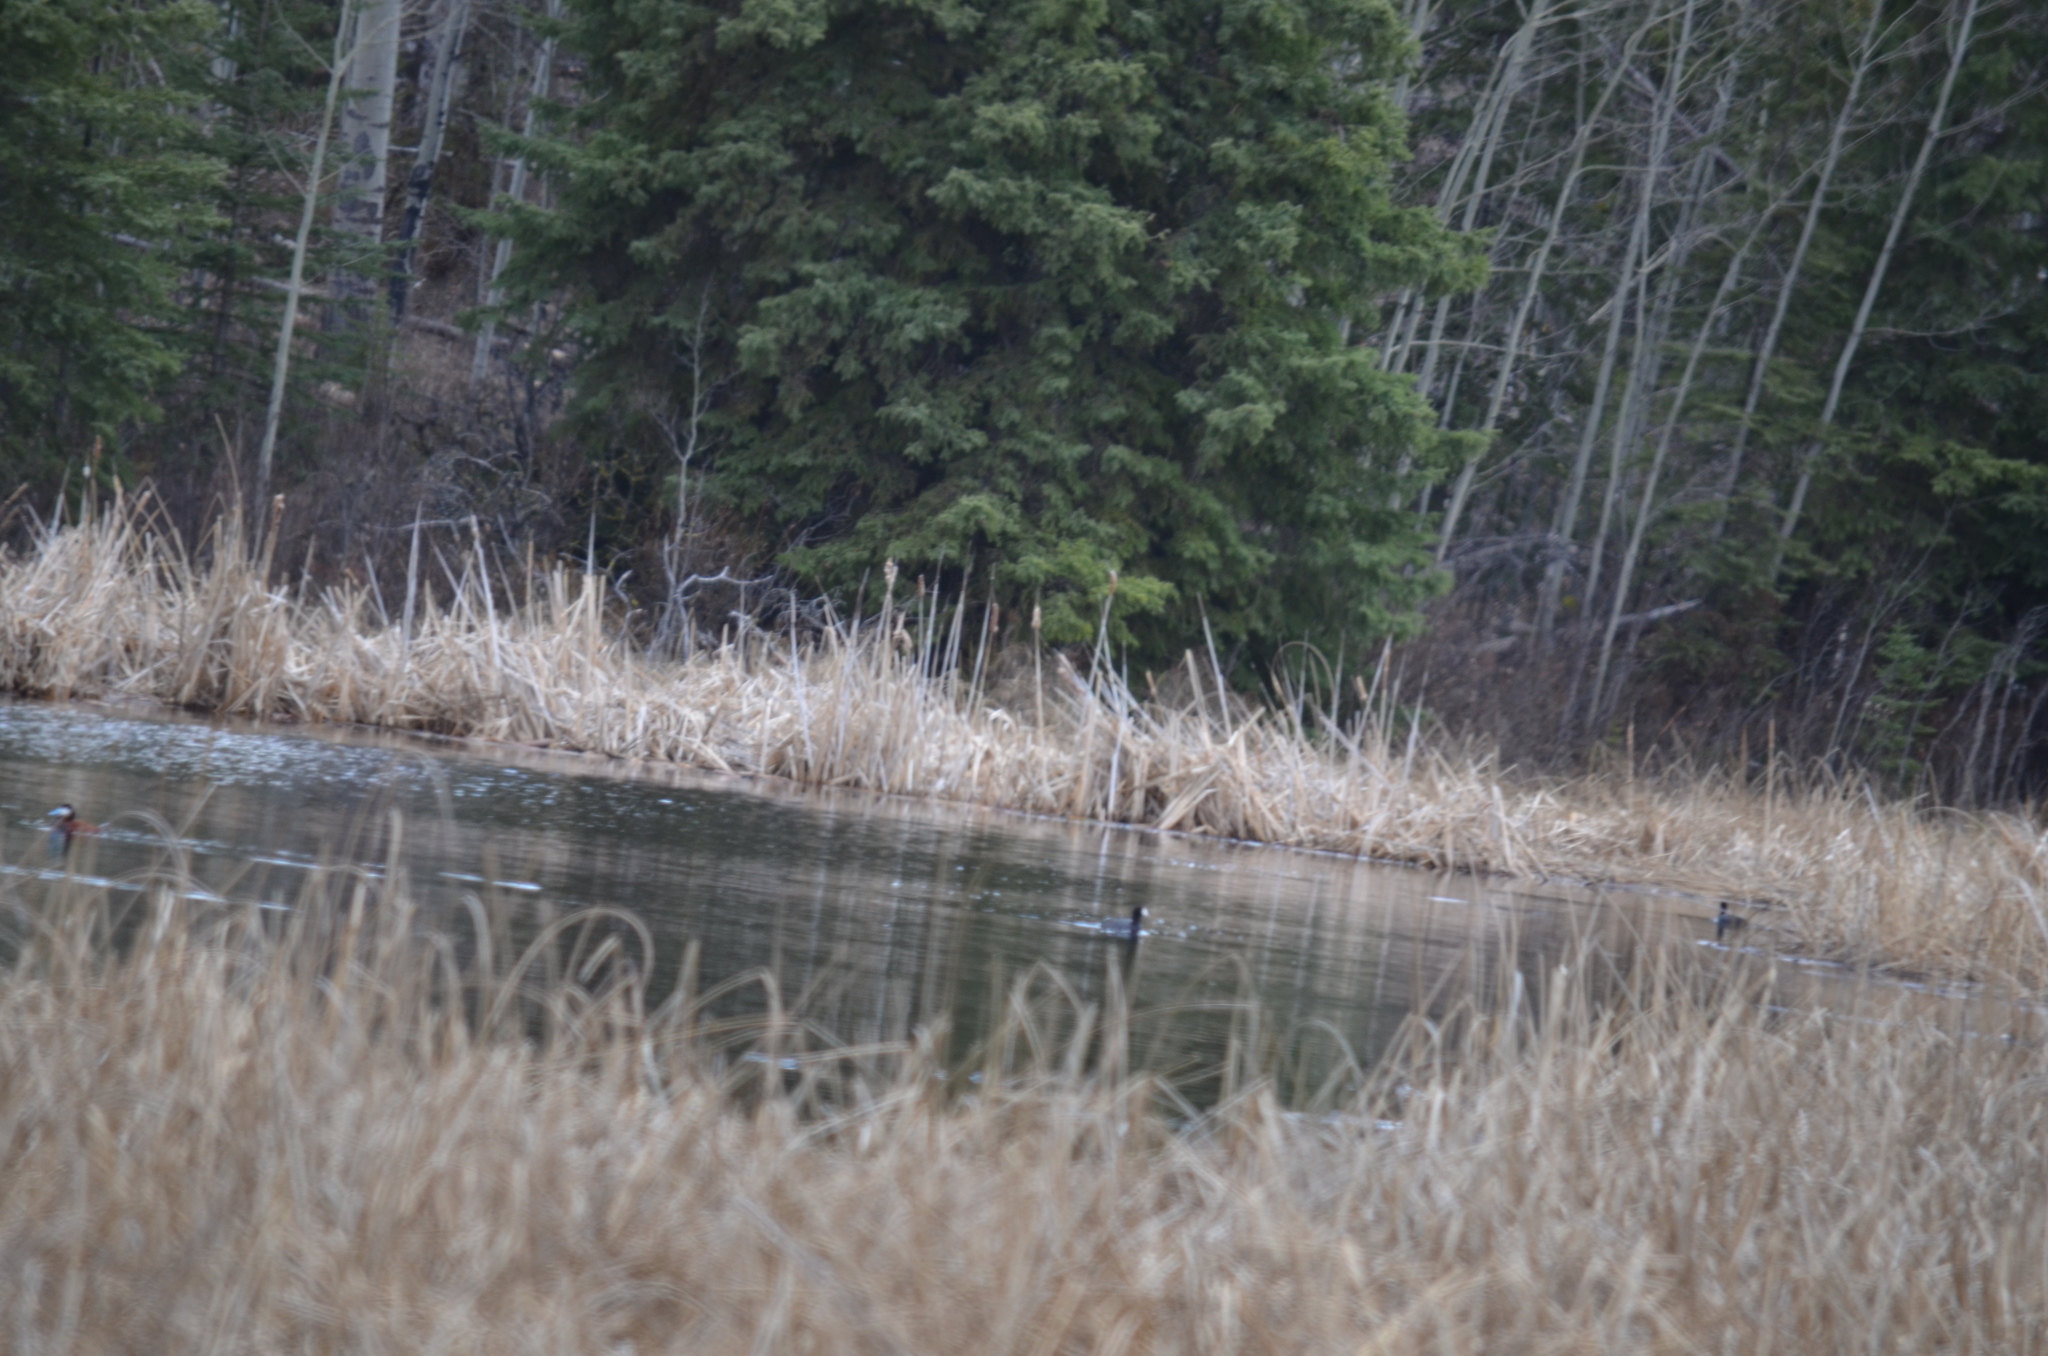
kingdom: Animalia
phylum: Chordata
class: Aves
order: Gruiformes
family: Rallidae
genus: Fulica
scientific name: Fulica americana
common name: American coot
